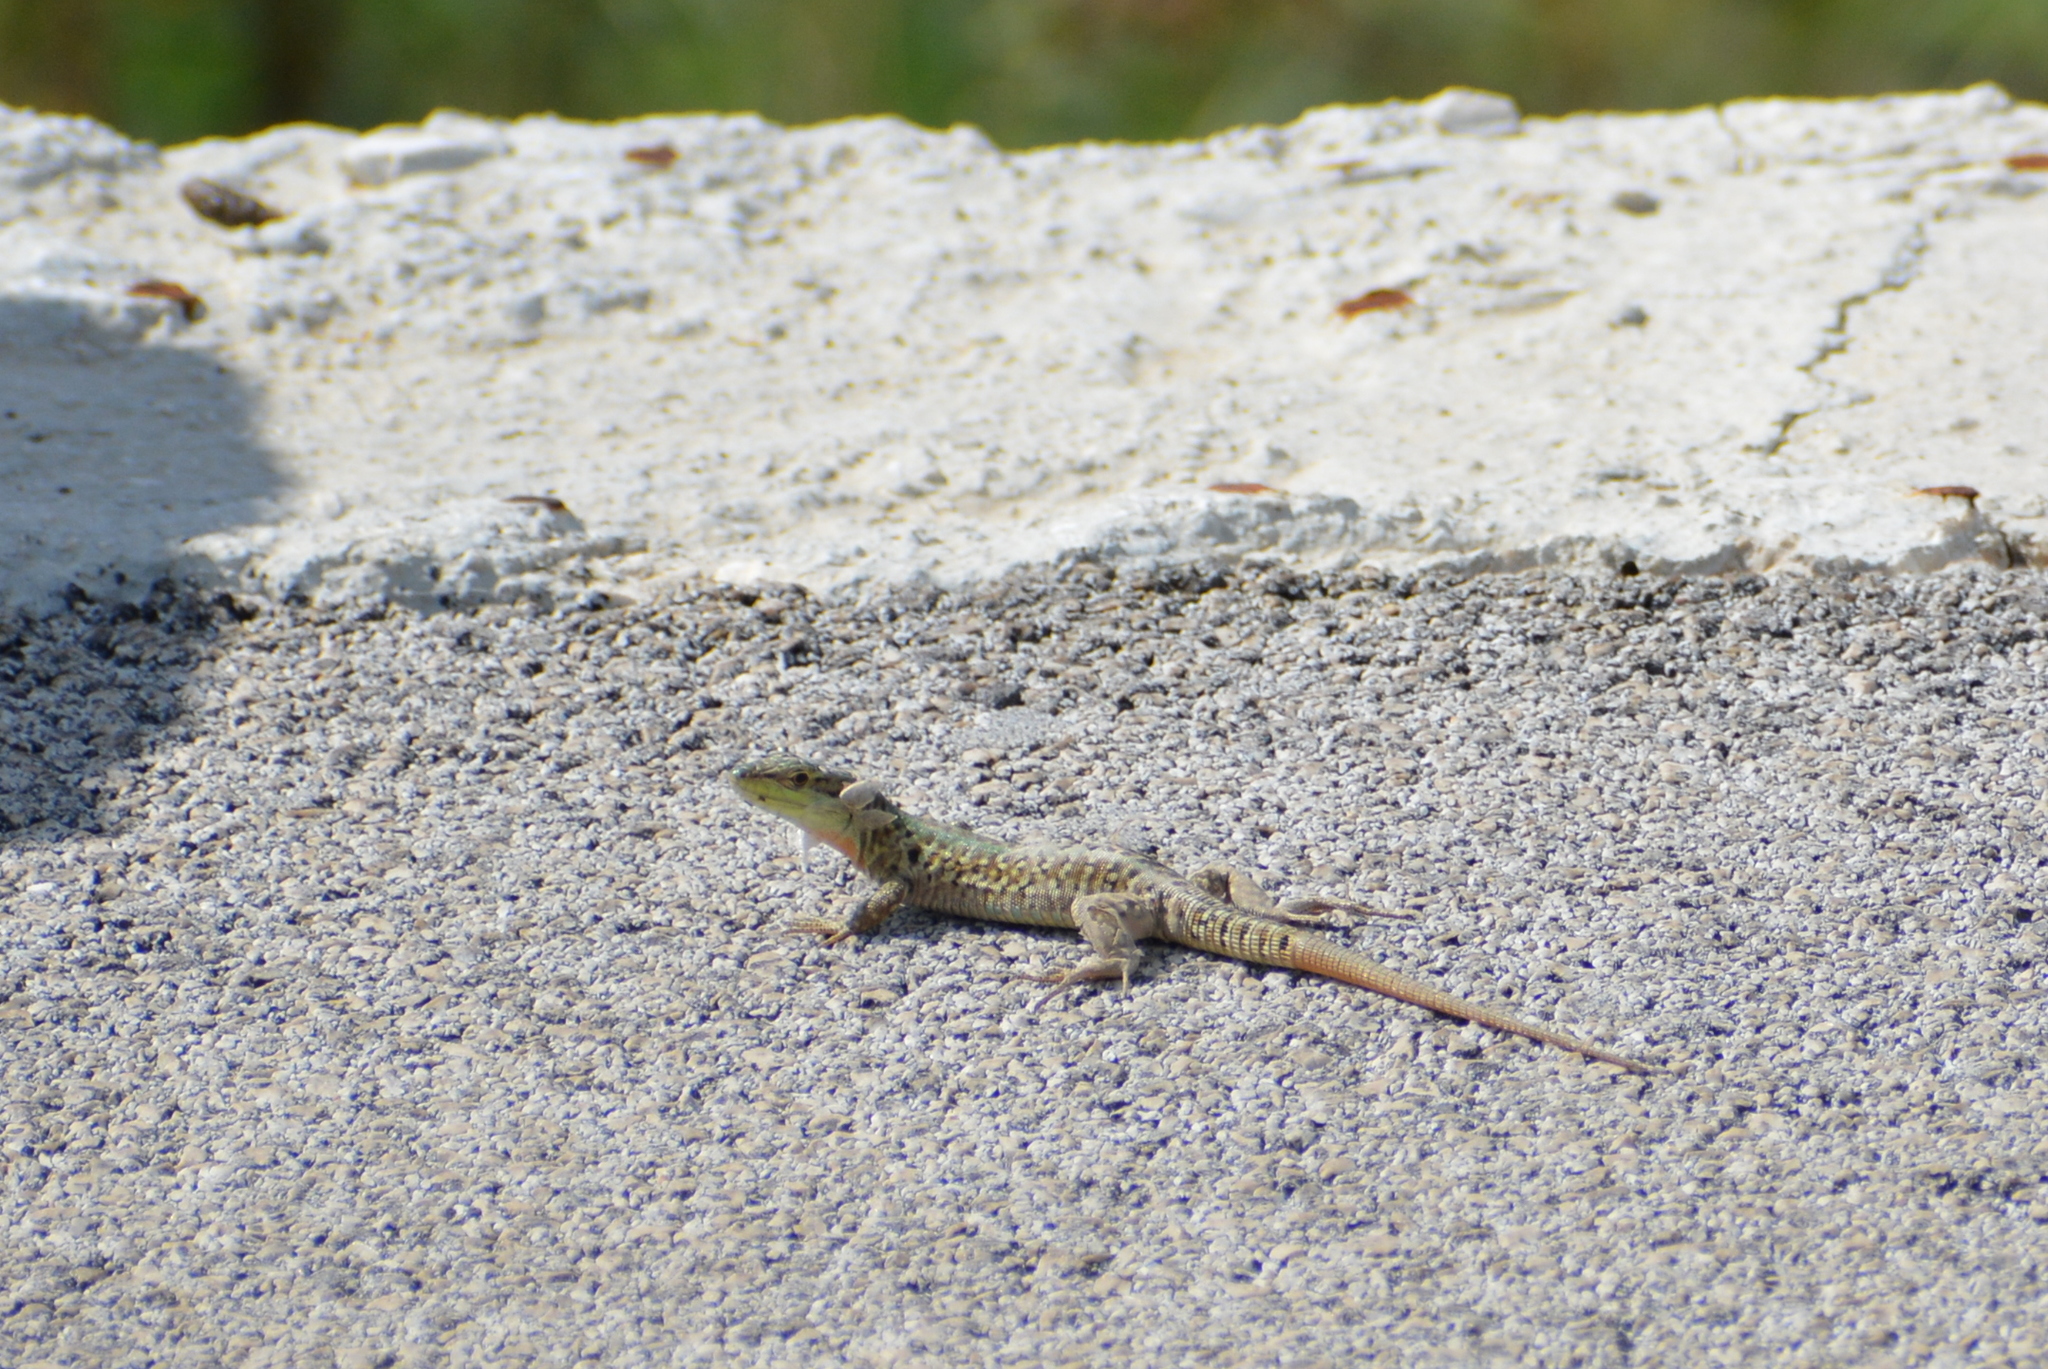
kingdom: Animalia
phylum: Chordata
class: Squamata
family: Lacertidae
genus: Podarcis
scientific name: Podarcis siculus
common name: Italian wall lizard
